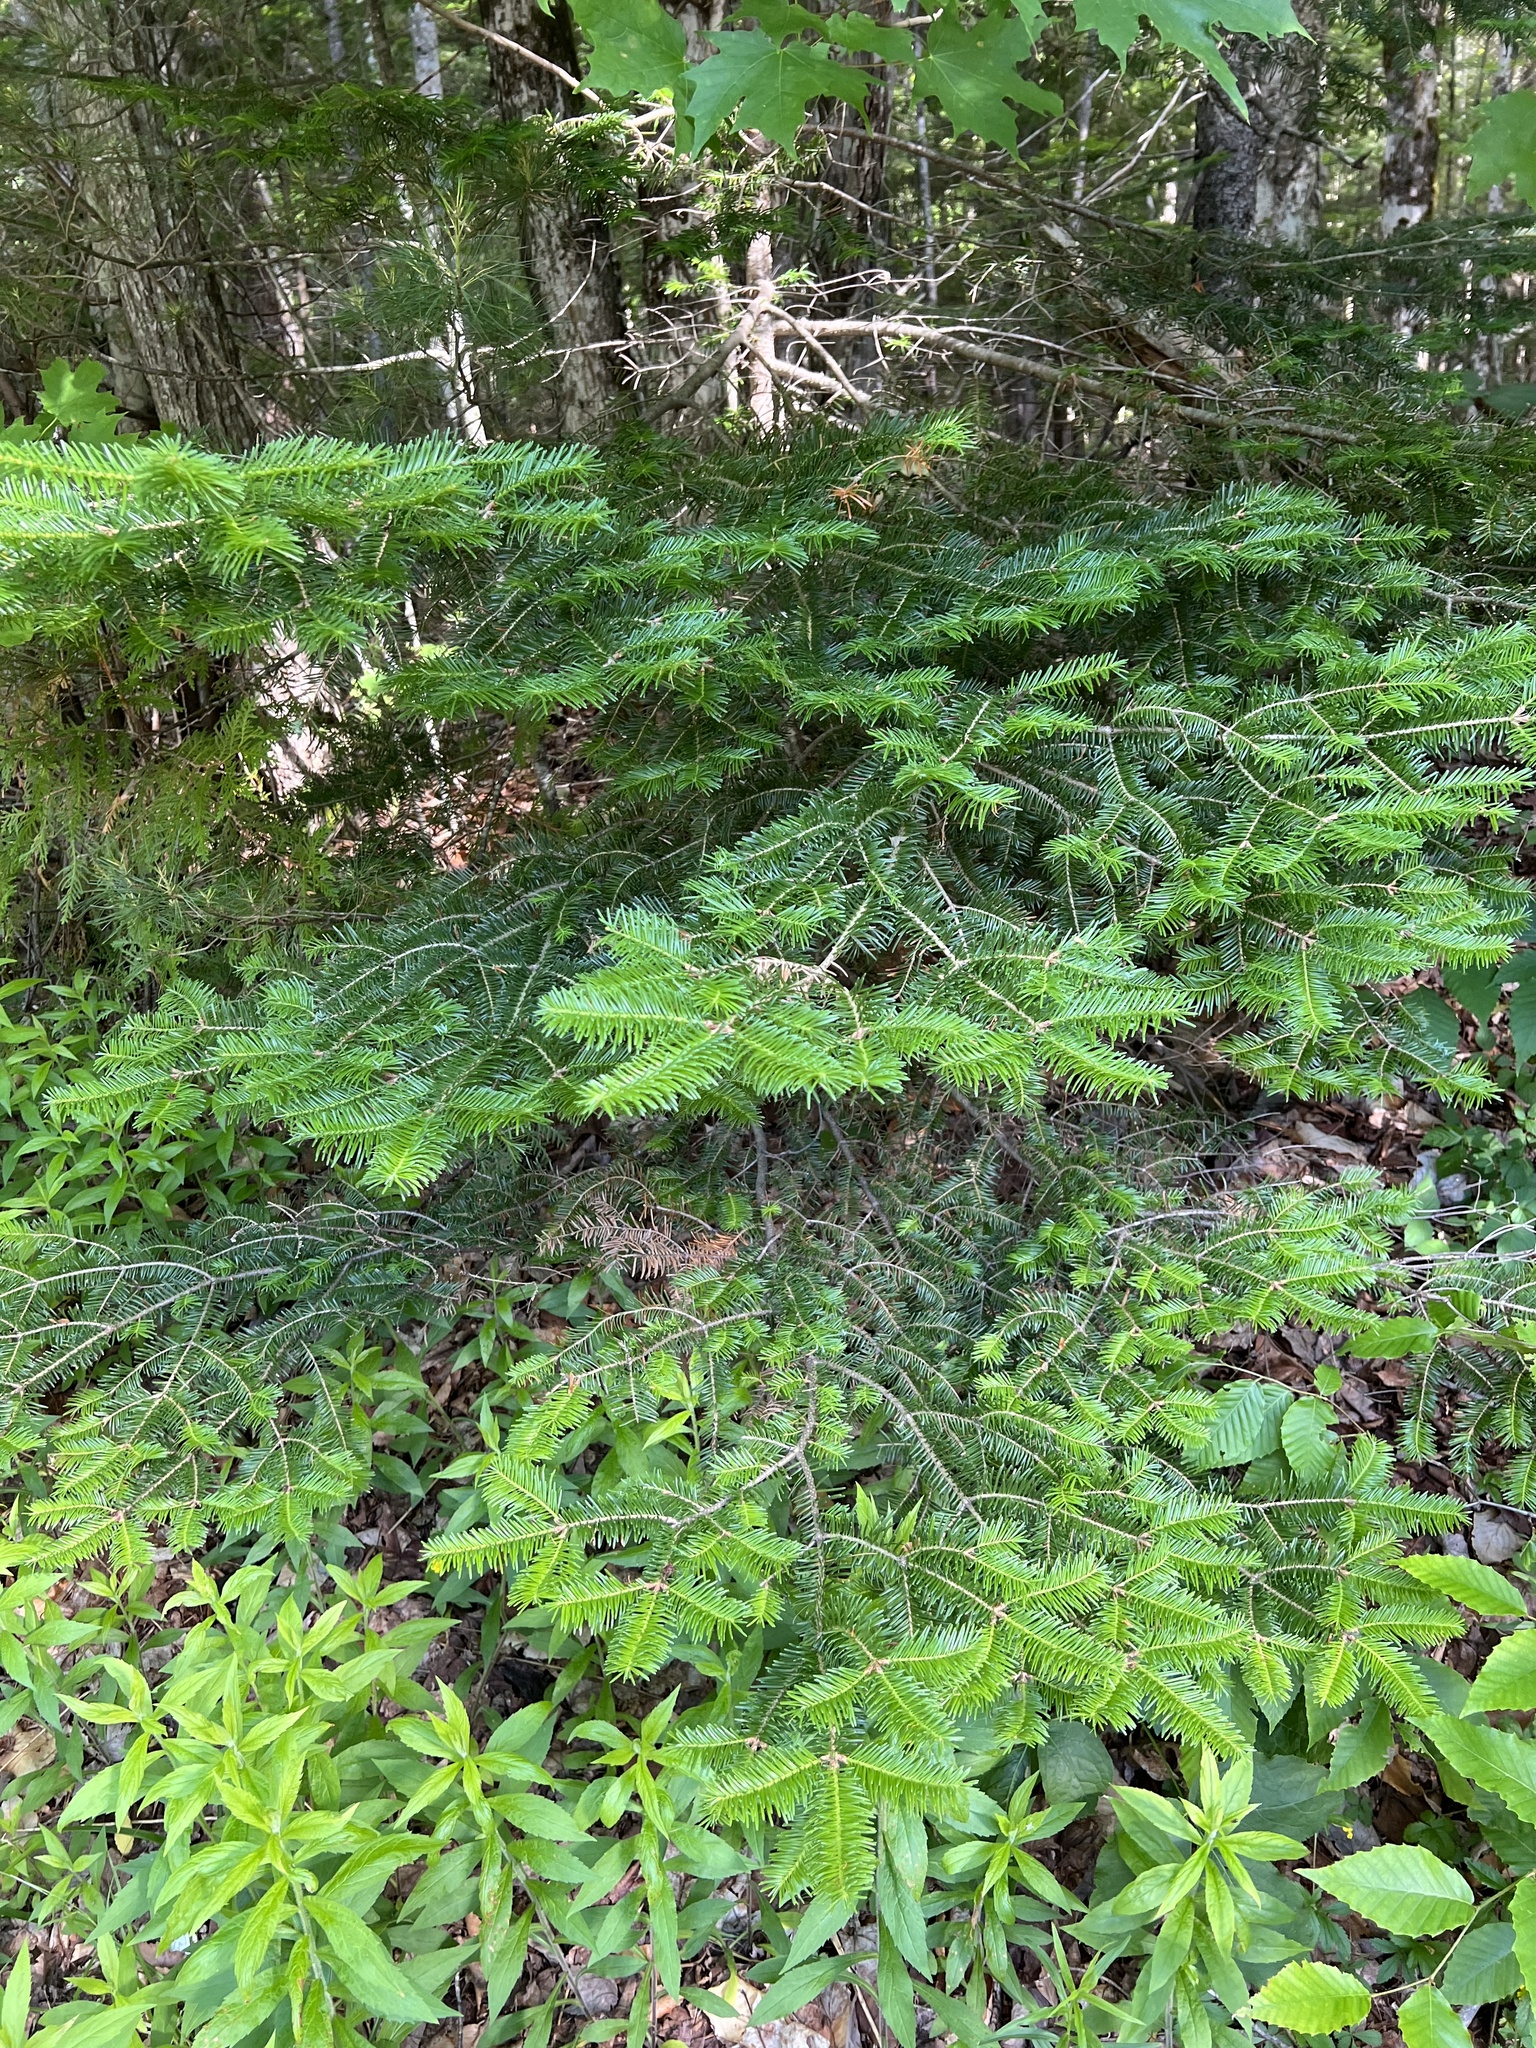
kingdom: Plantae
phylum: Tracheophyta
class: Pinopsida
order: Pinales
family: Pinaceae
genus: Abies
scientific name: Abies balsamea
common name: Balsam fir
